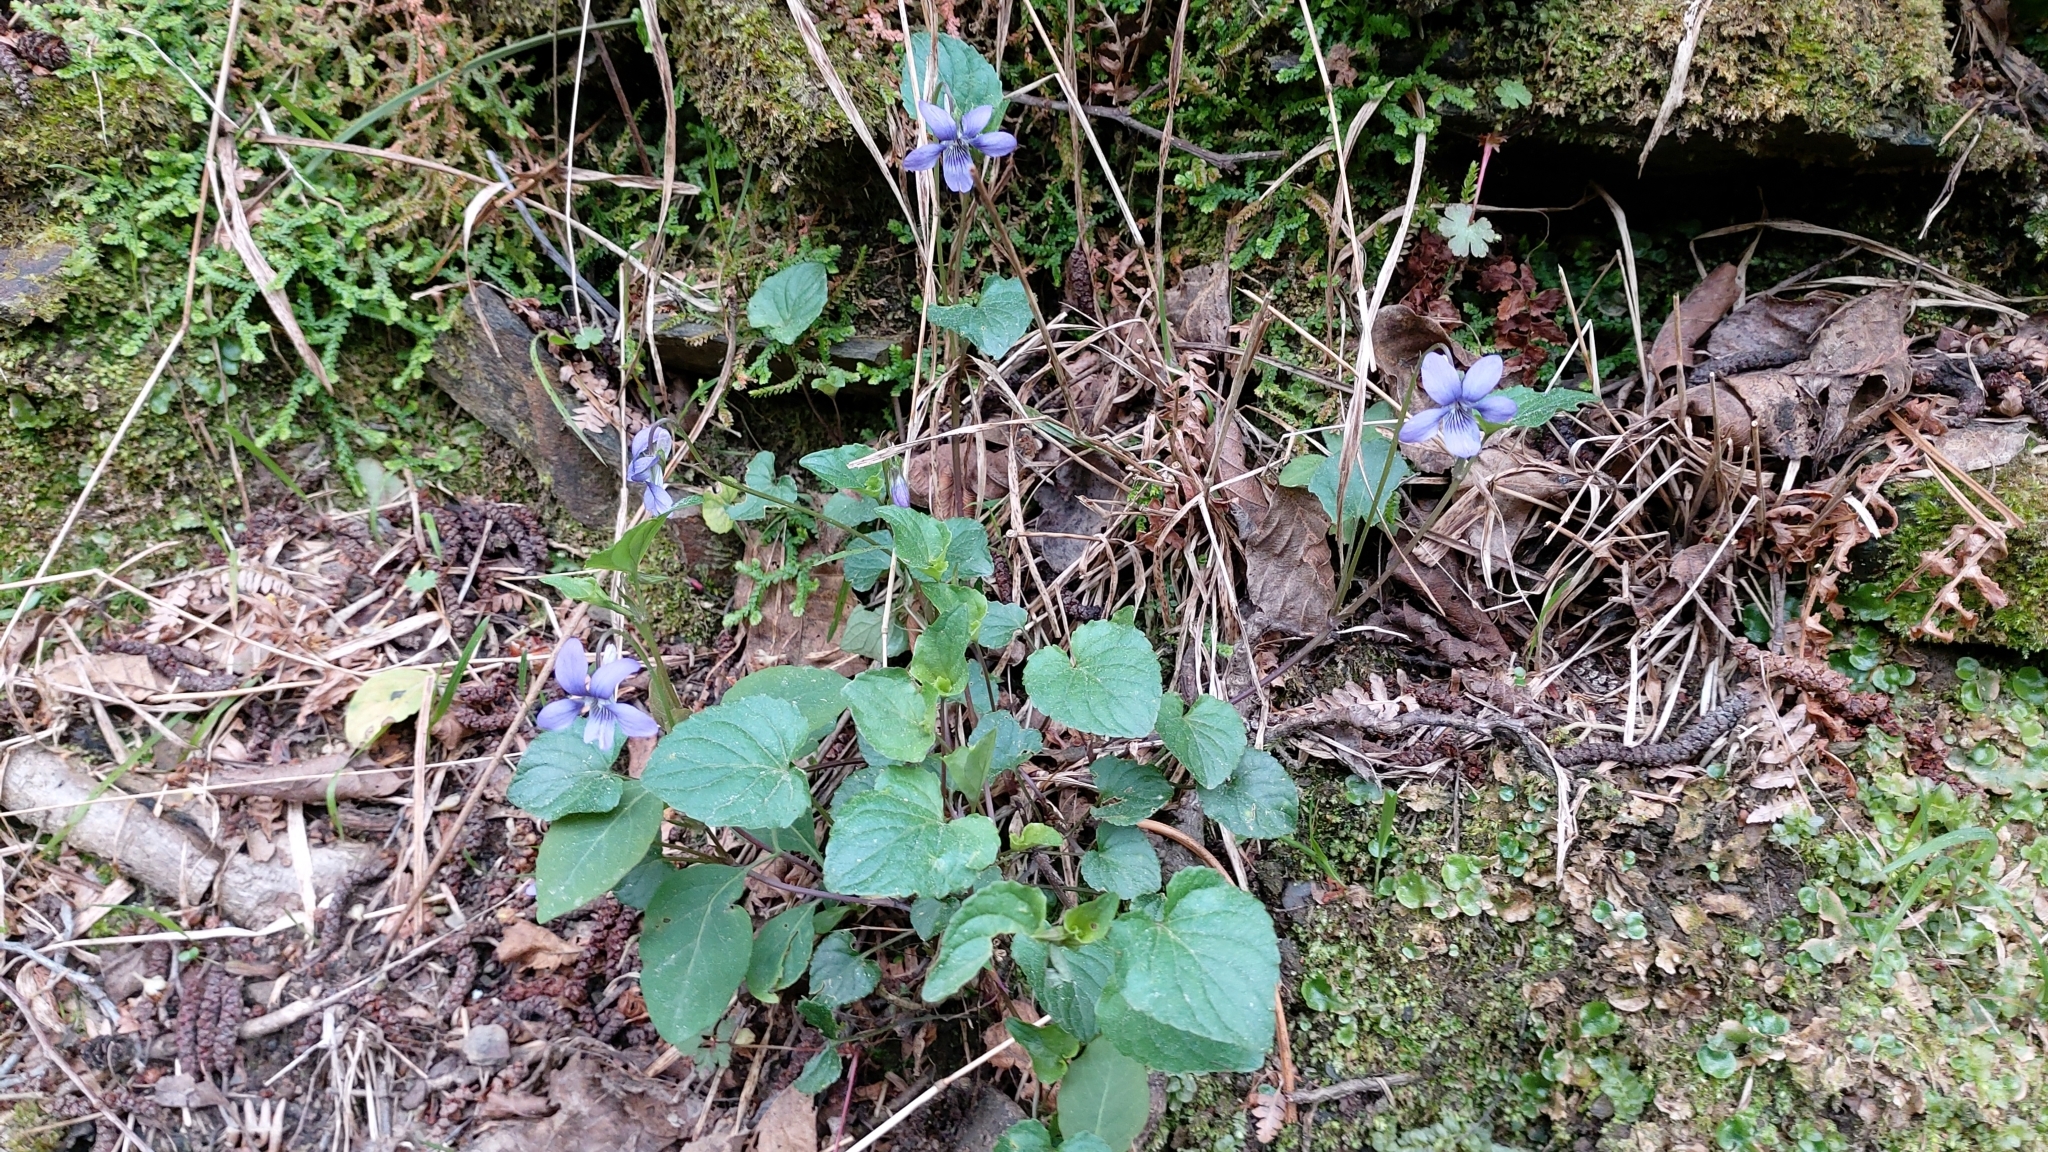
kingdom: Plantae
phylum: Tracheophyta
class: Magnoliopsida
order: Malpighiales
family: Violaceae
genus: Viola
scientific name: Viola riviniana
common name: Common dog-violet
